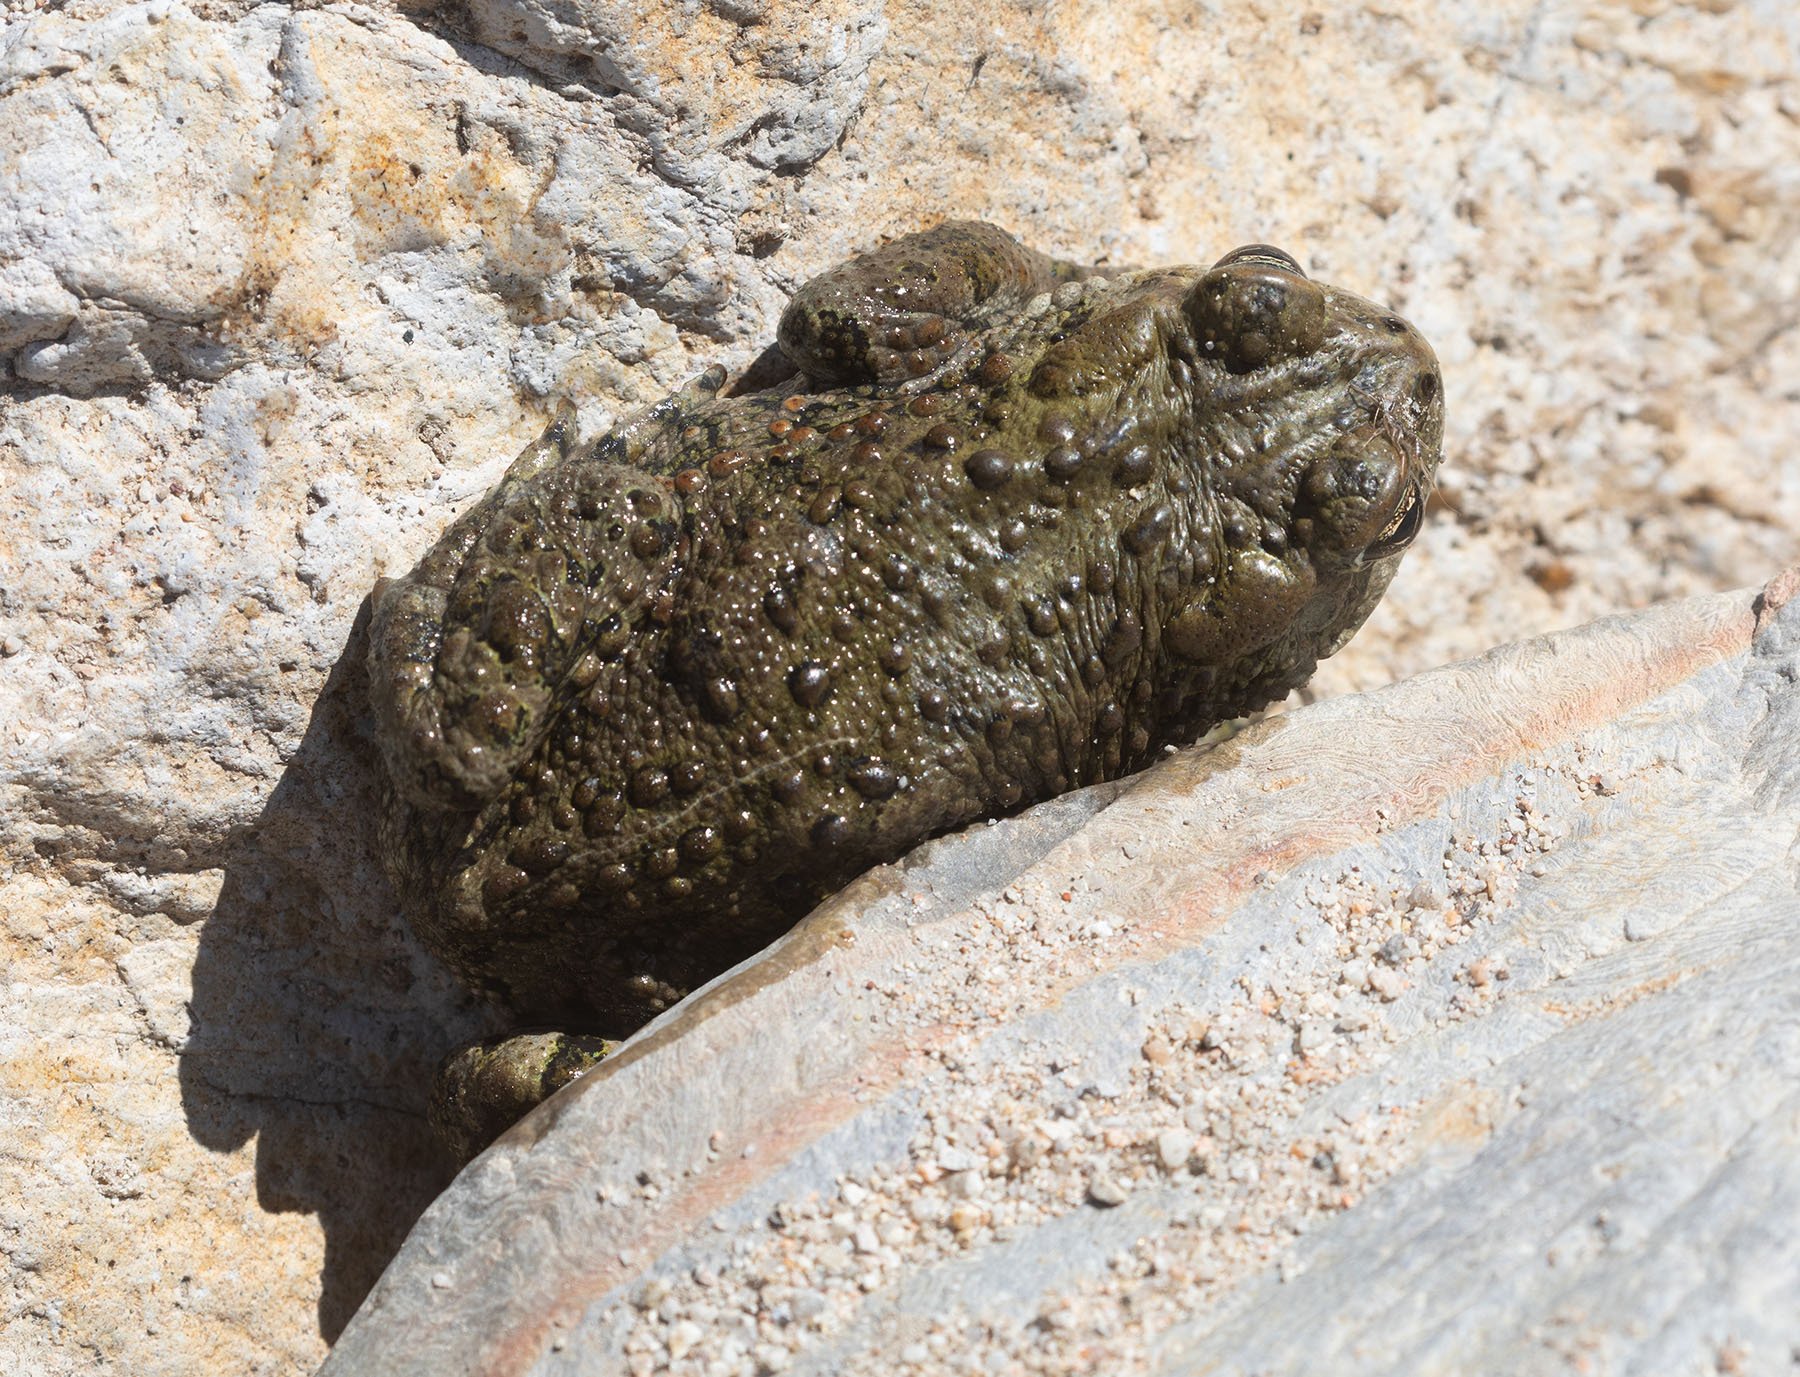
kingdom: Animalia
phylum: Chordata
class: Amphibia
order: Anura
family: Bufonidae
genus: Anaxyrus
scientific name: Anaxyrus boreas
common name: Western toad
